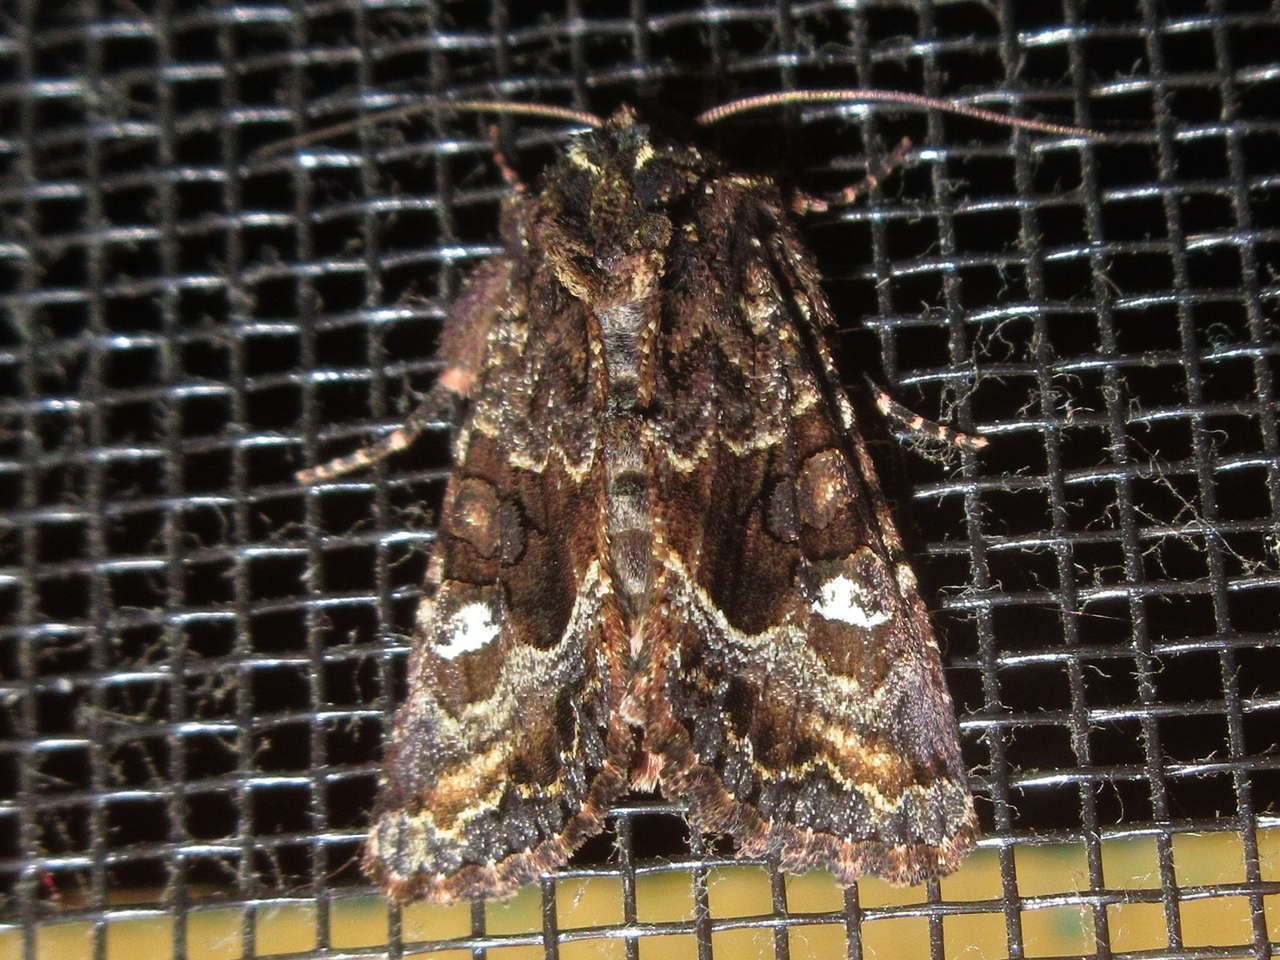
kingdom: Animalia
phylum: Arthropoda
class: Insecta
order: Lepidoptera
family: Noctuidae
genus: Neumichtis
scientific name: Neumichtis saliaris
